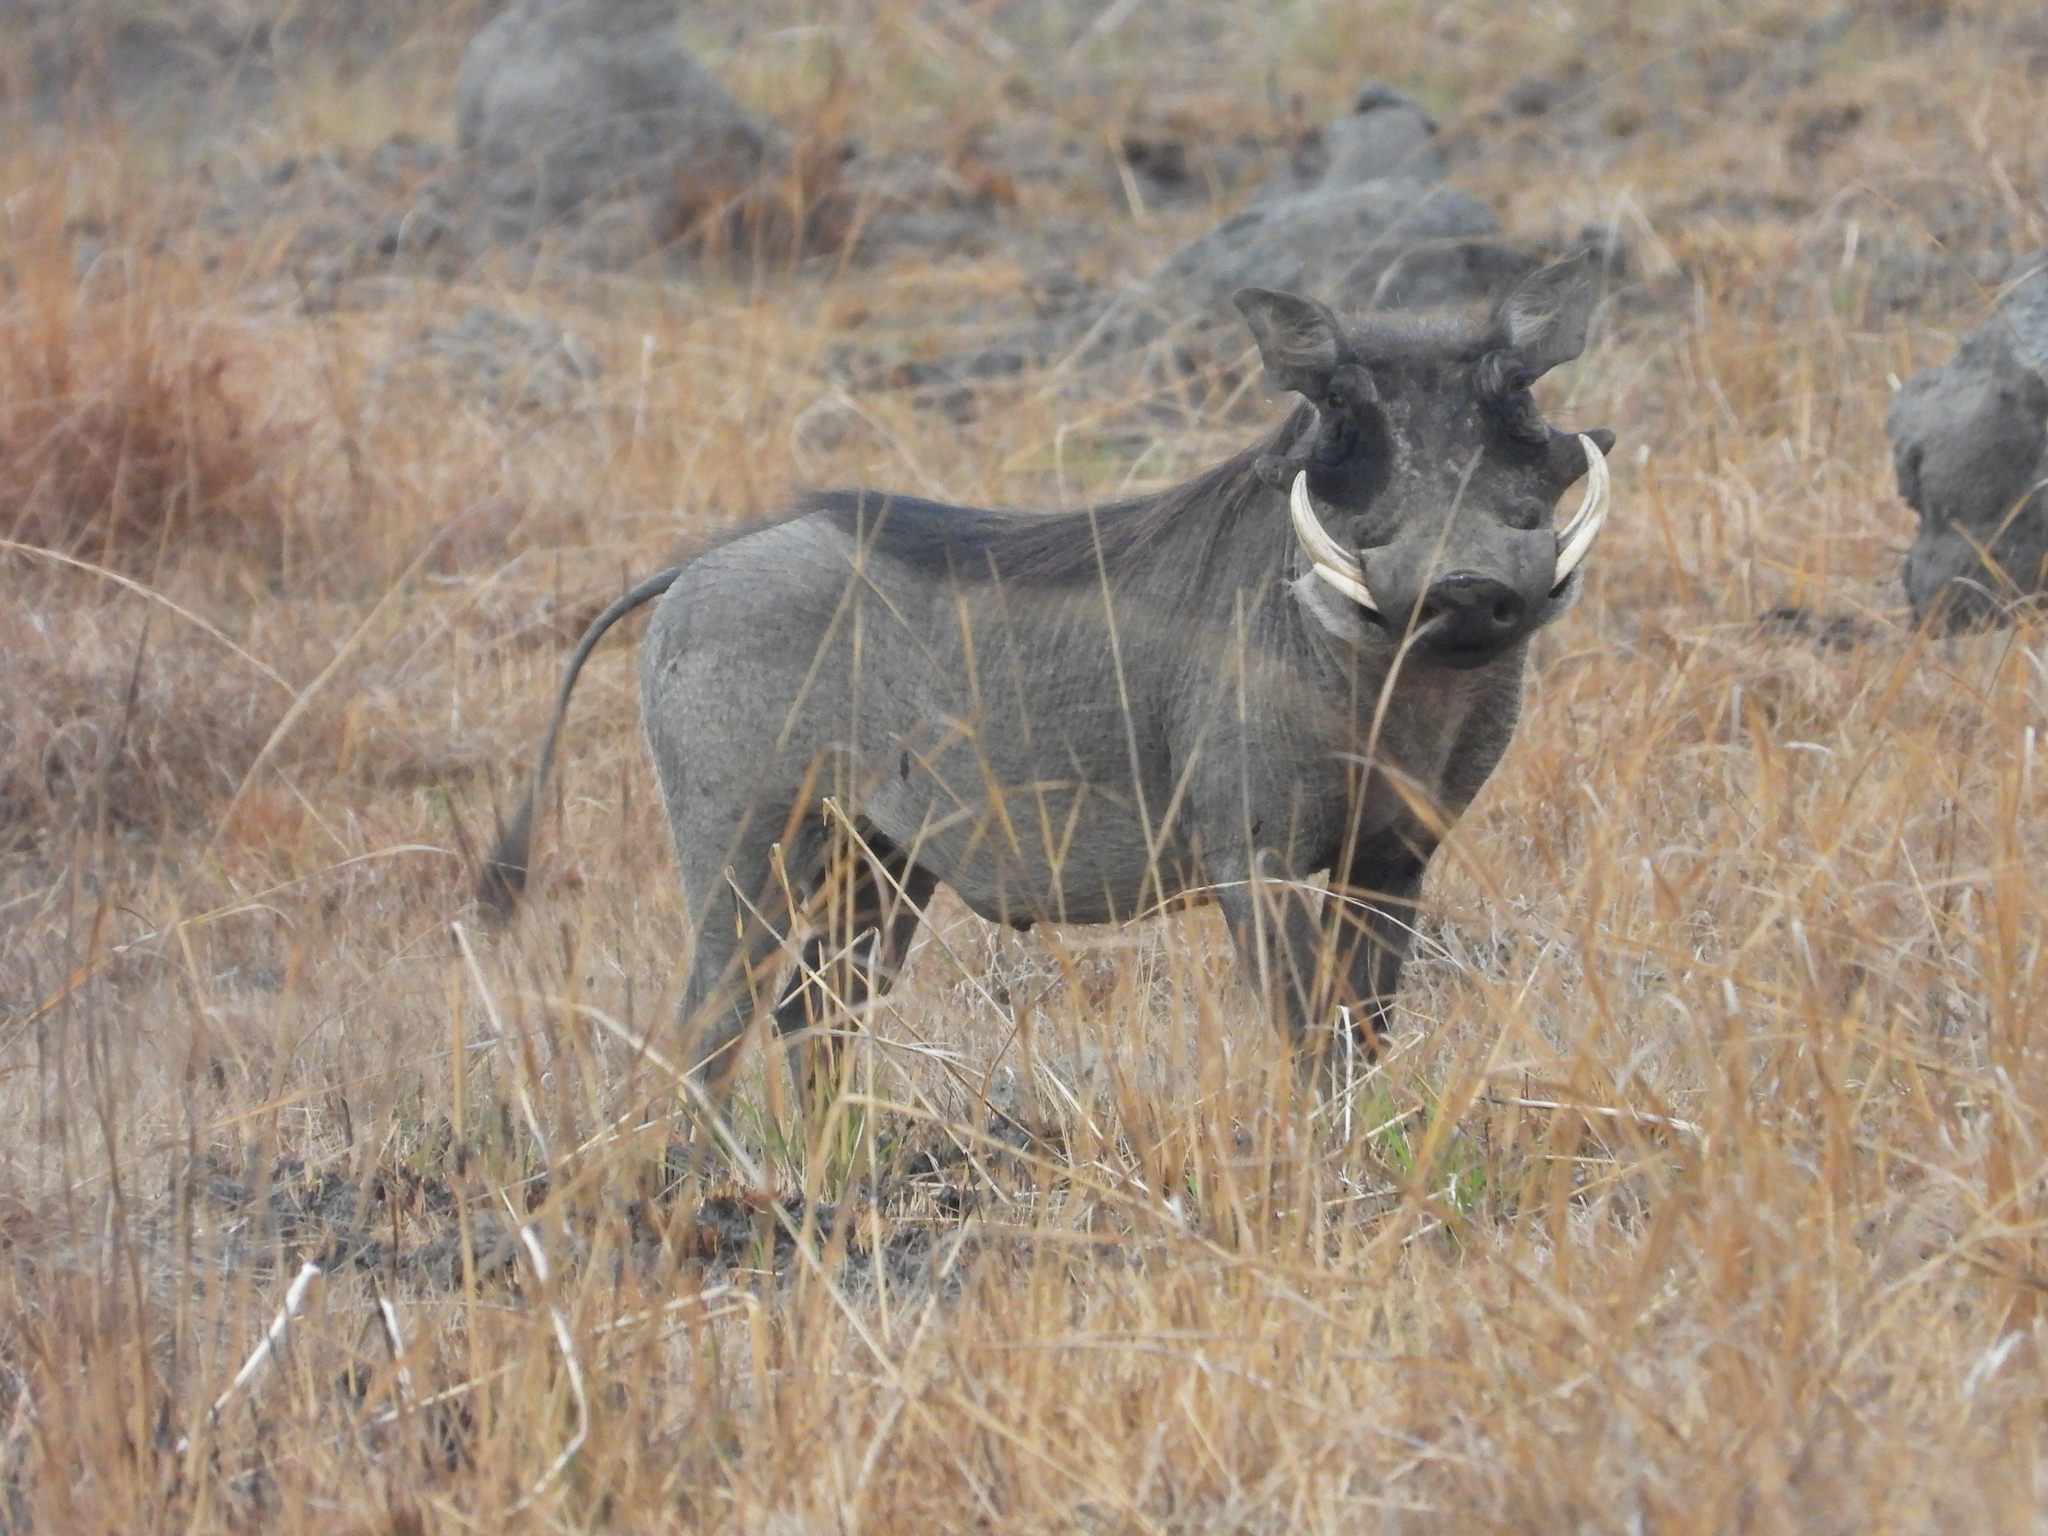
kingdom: Animalia
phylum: Chordata
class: Mammalia
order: Artiodactyla
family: Suidae
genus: Phacochoerus
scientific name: Phacochoerus africanus
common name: Common warthog
